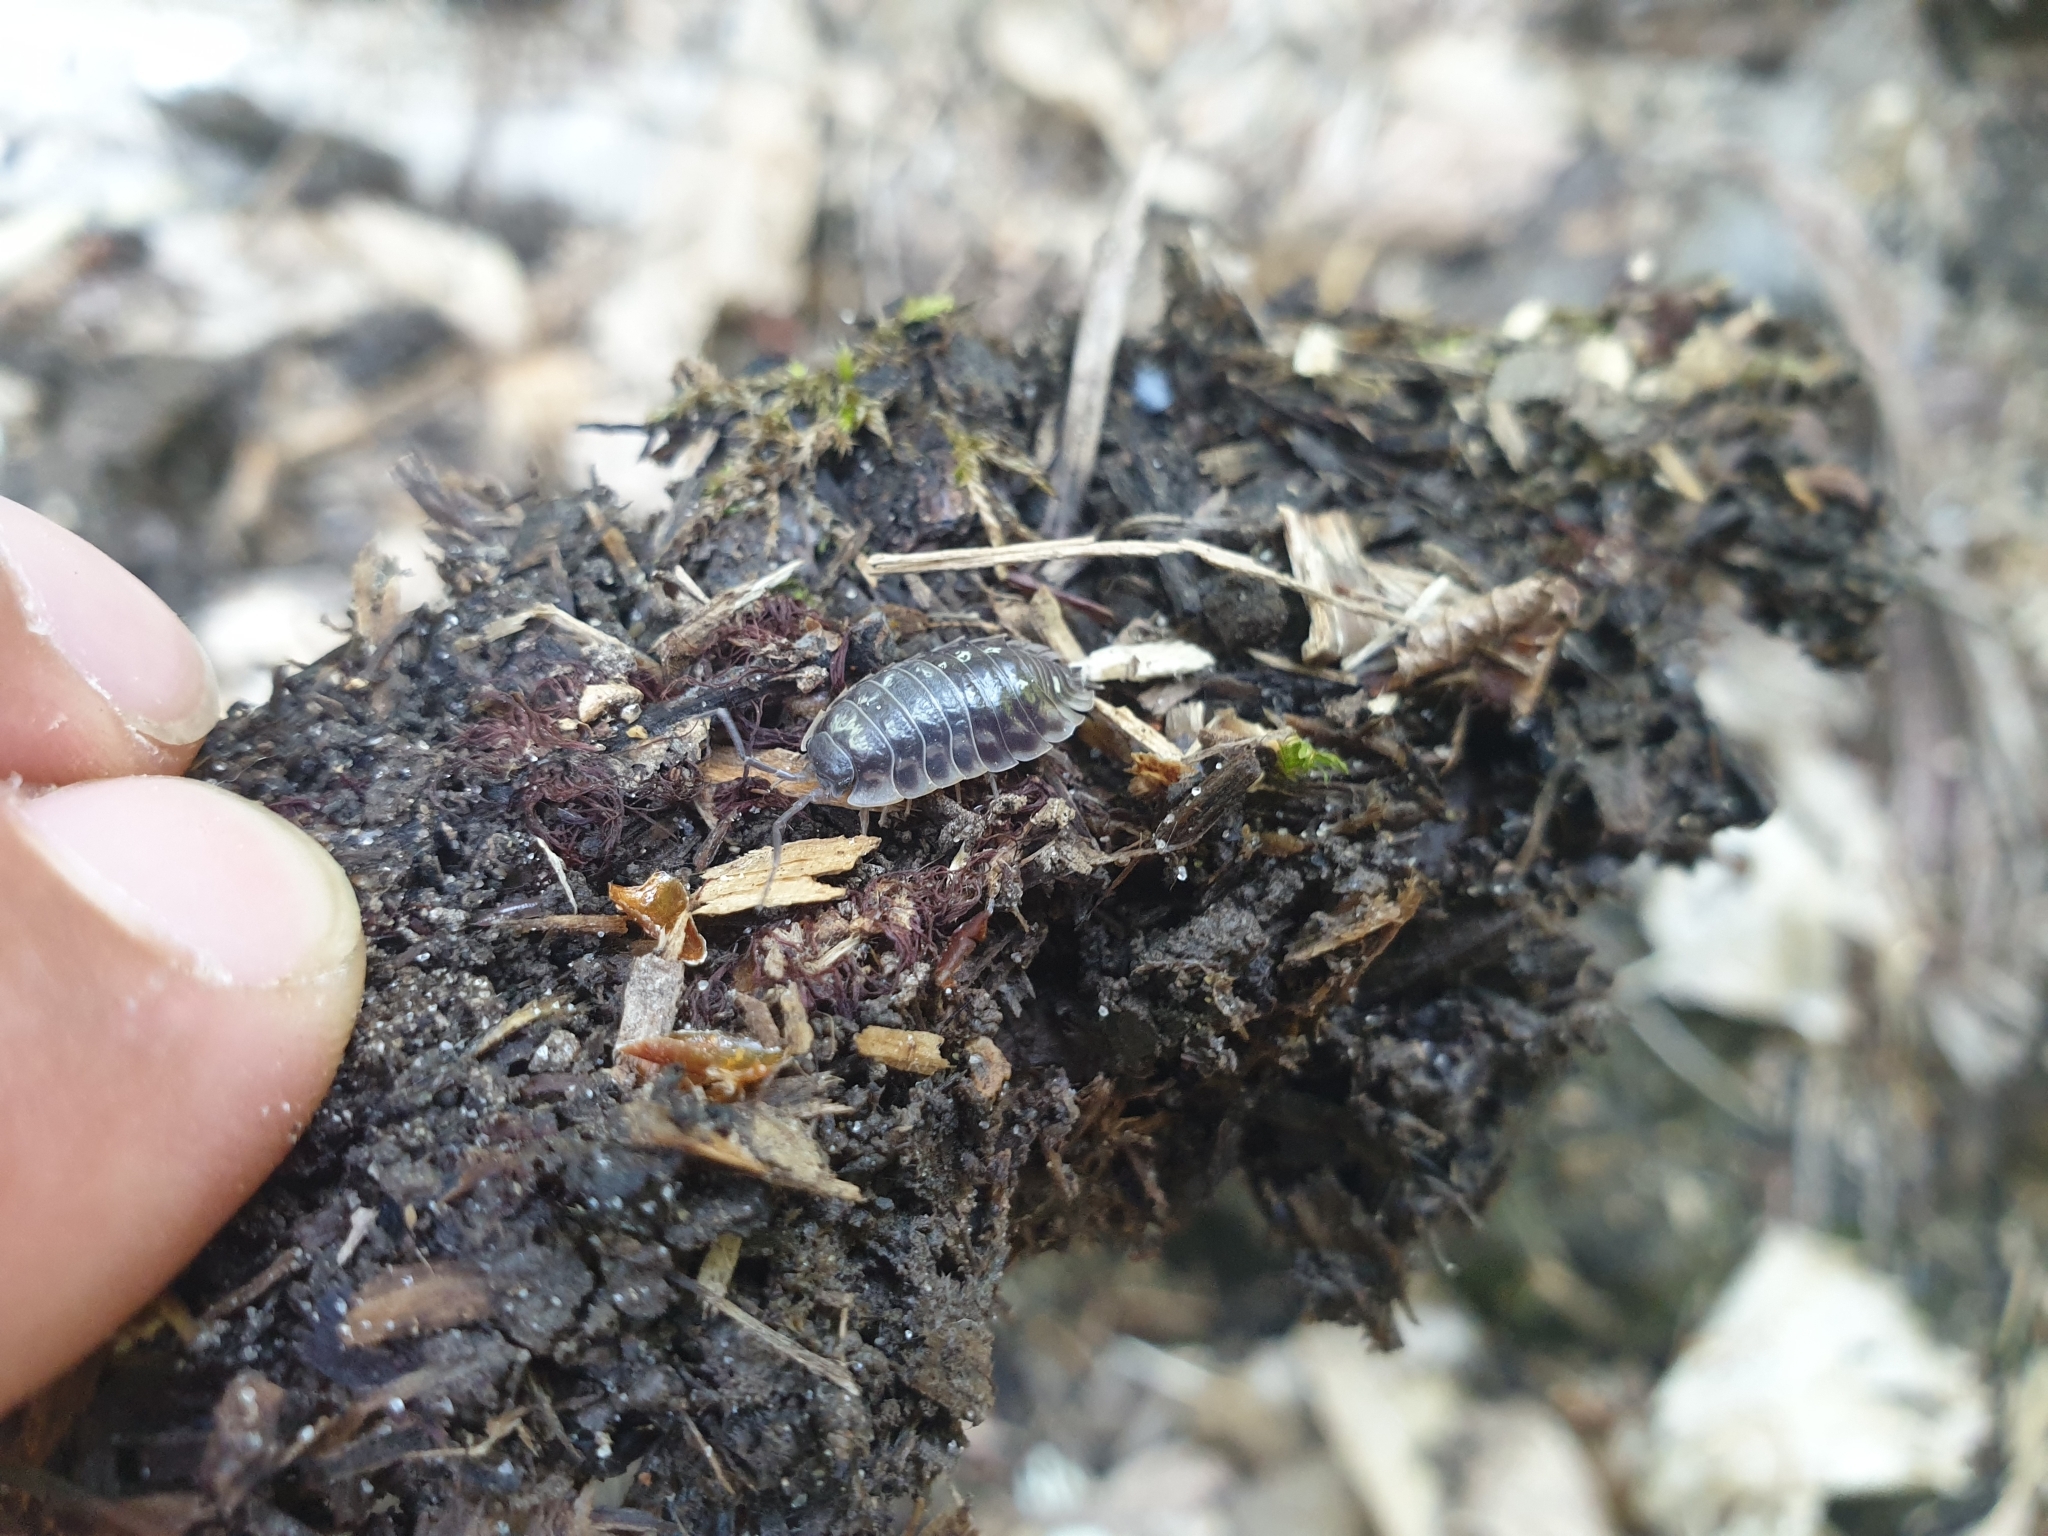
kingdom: Animalia
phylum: Arthropoda
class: Malacostraca
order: Isopoda
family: Oniscidae
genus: Oniscus
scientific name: Oniscus asellus
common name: Common shiny woodlouse
